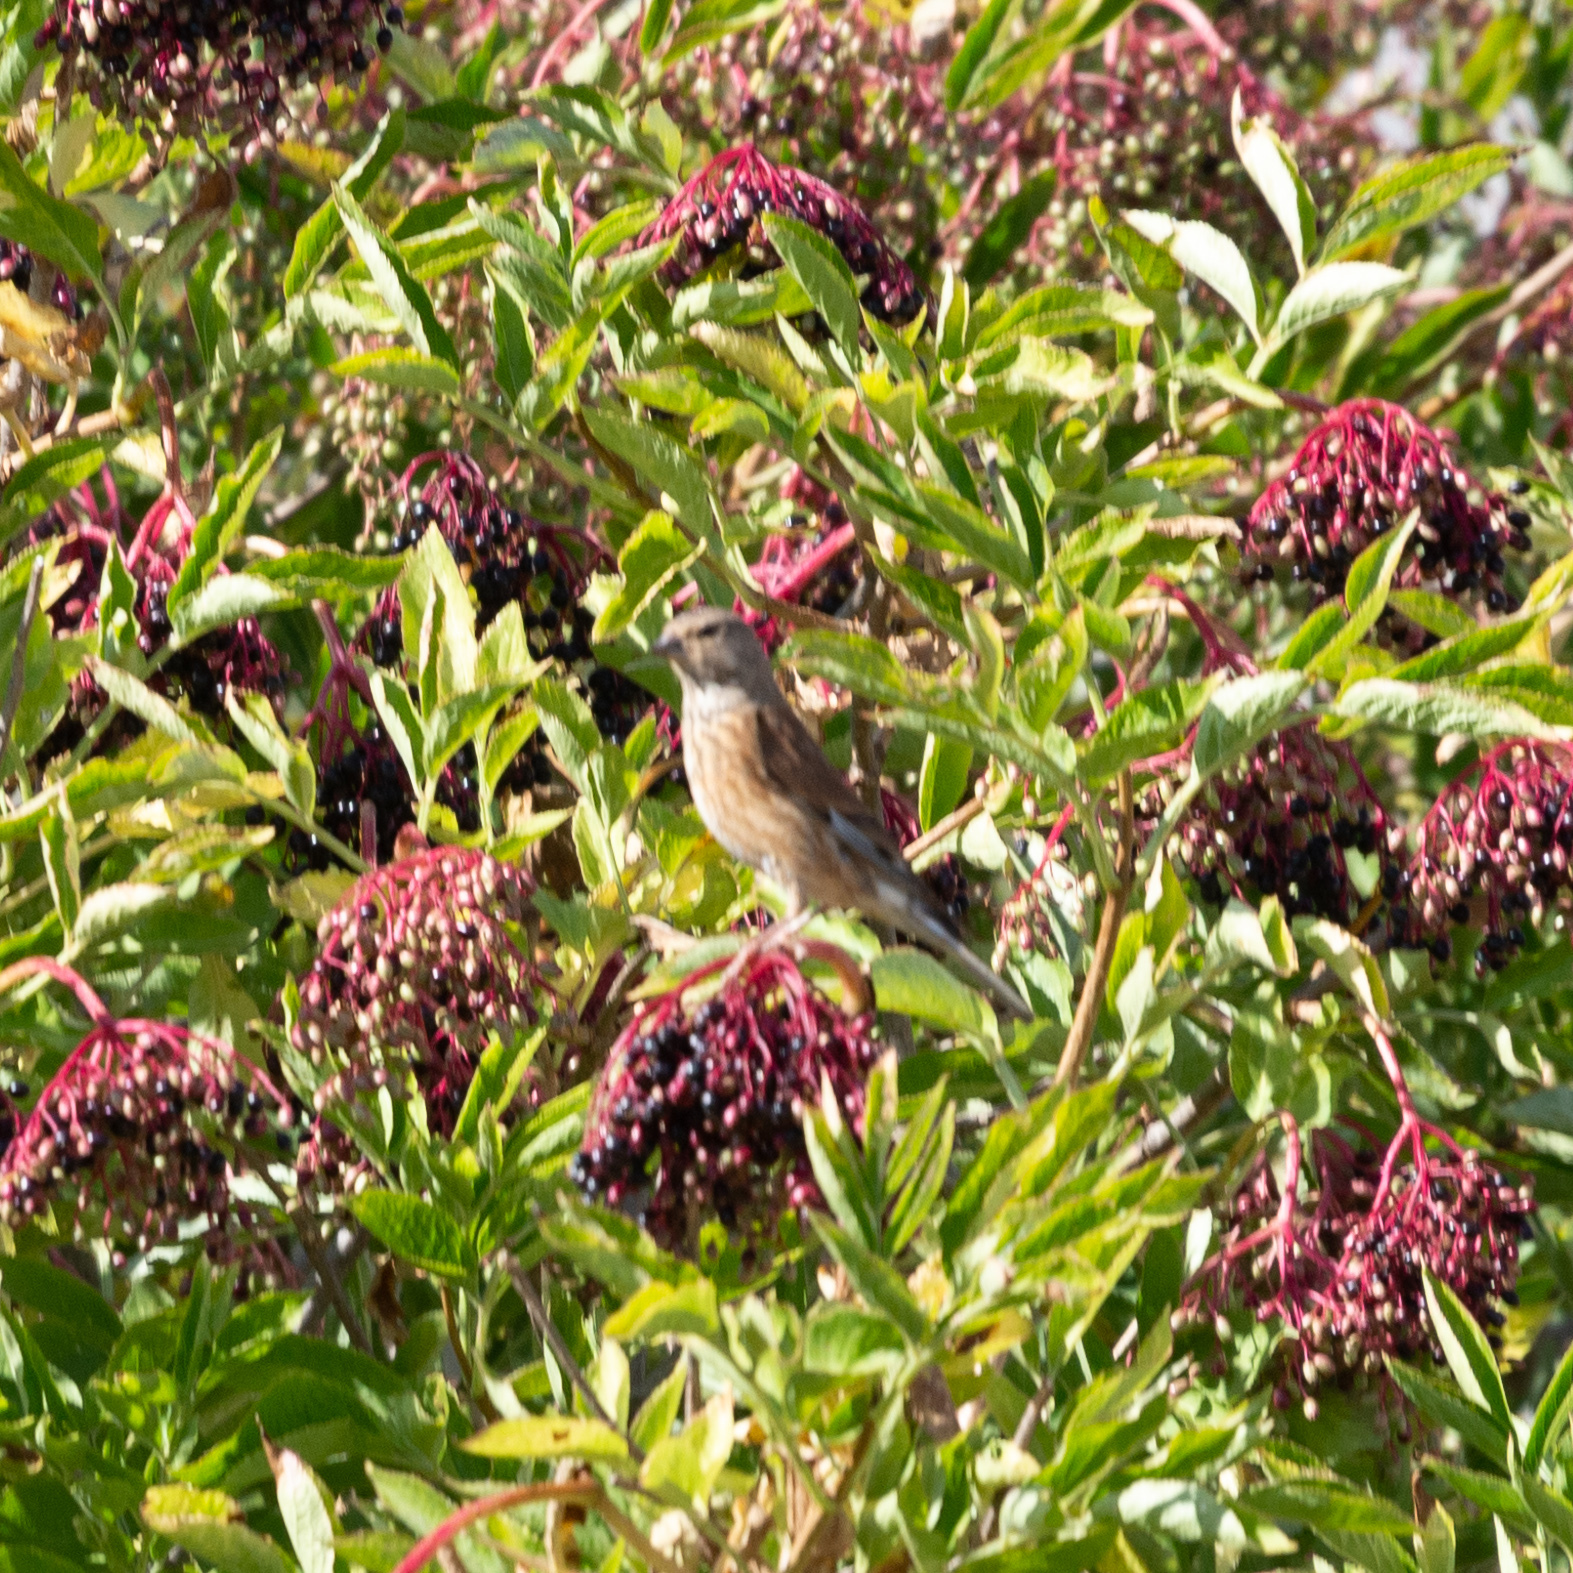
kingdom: Animalia
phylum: Chordata
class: Aves
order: Passeriformes
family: Fringillidae
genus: Linaria
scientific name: Linaria cannabina
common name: Common linnet
